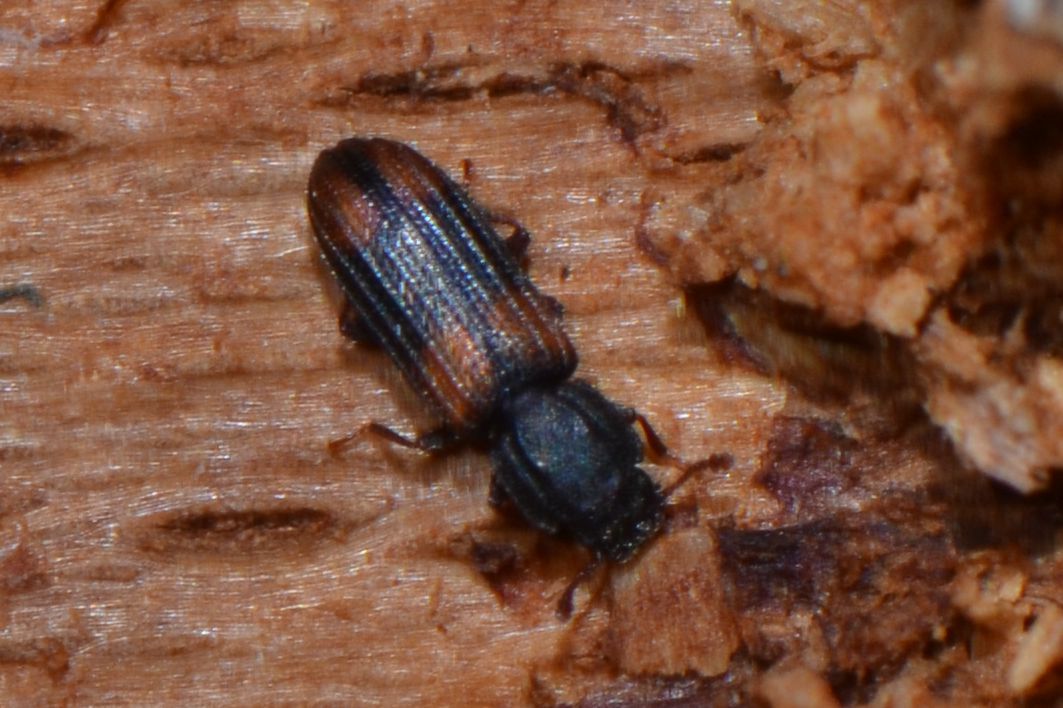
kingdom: Animalia
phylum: Arthropoda
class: Insecta
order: Coleoptera
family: Zopheridae
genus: Bitoma
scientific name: Bitoma crenata
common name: Bark beetle
